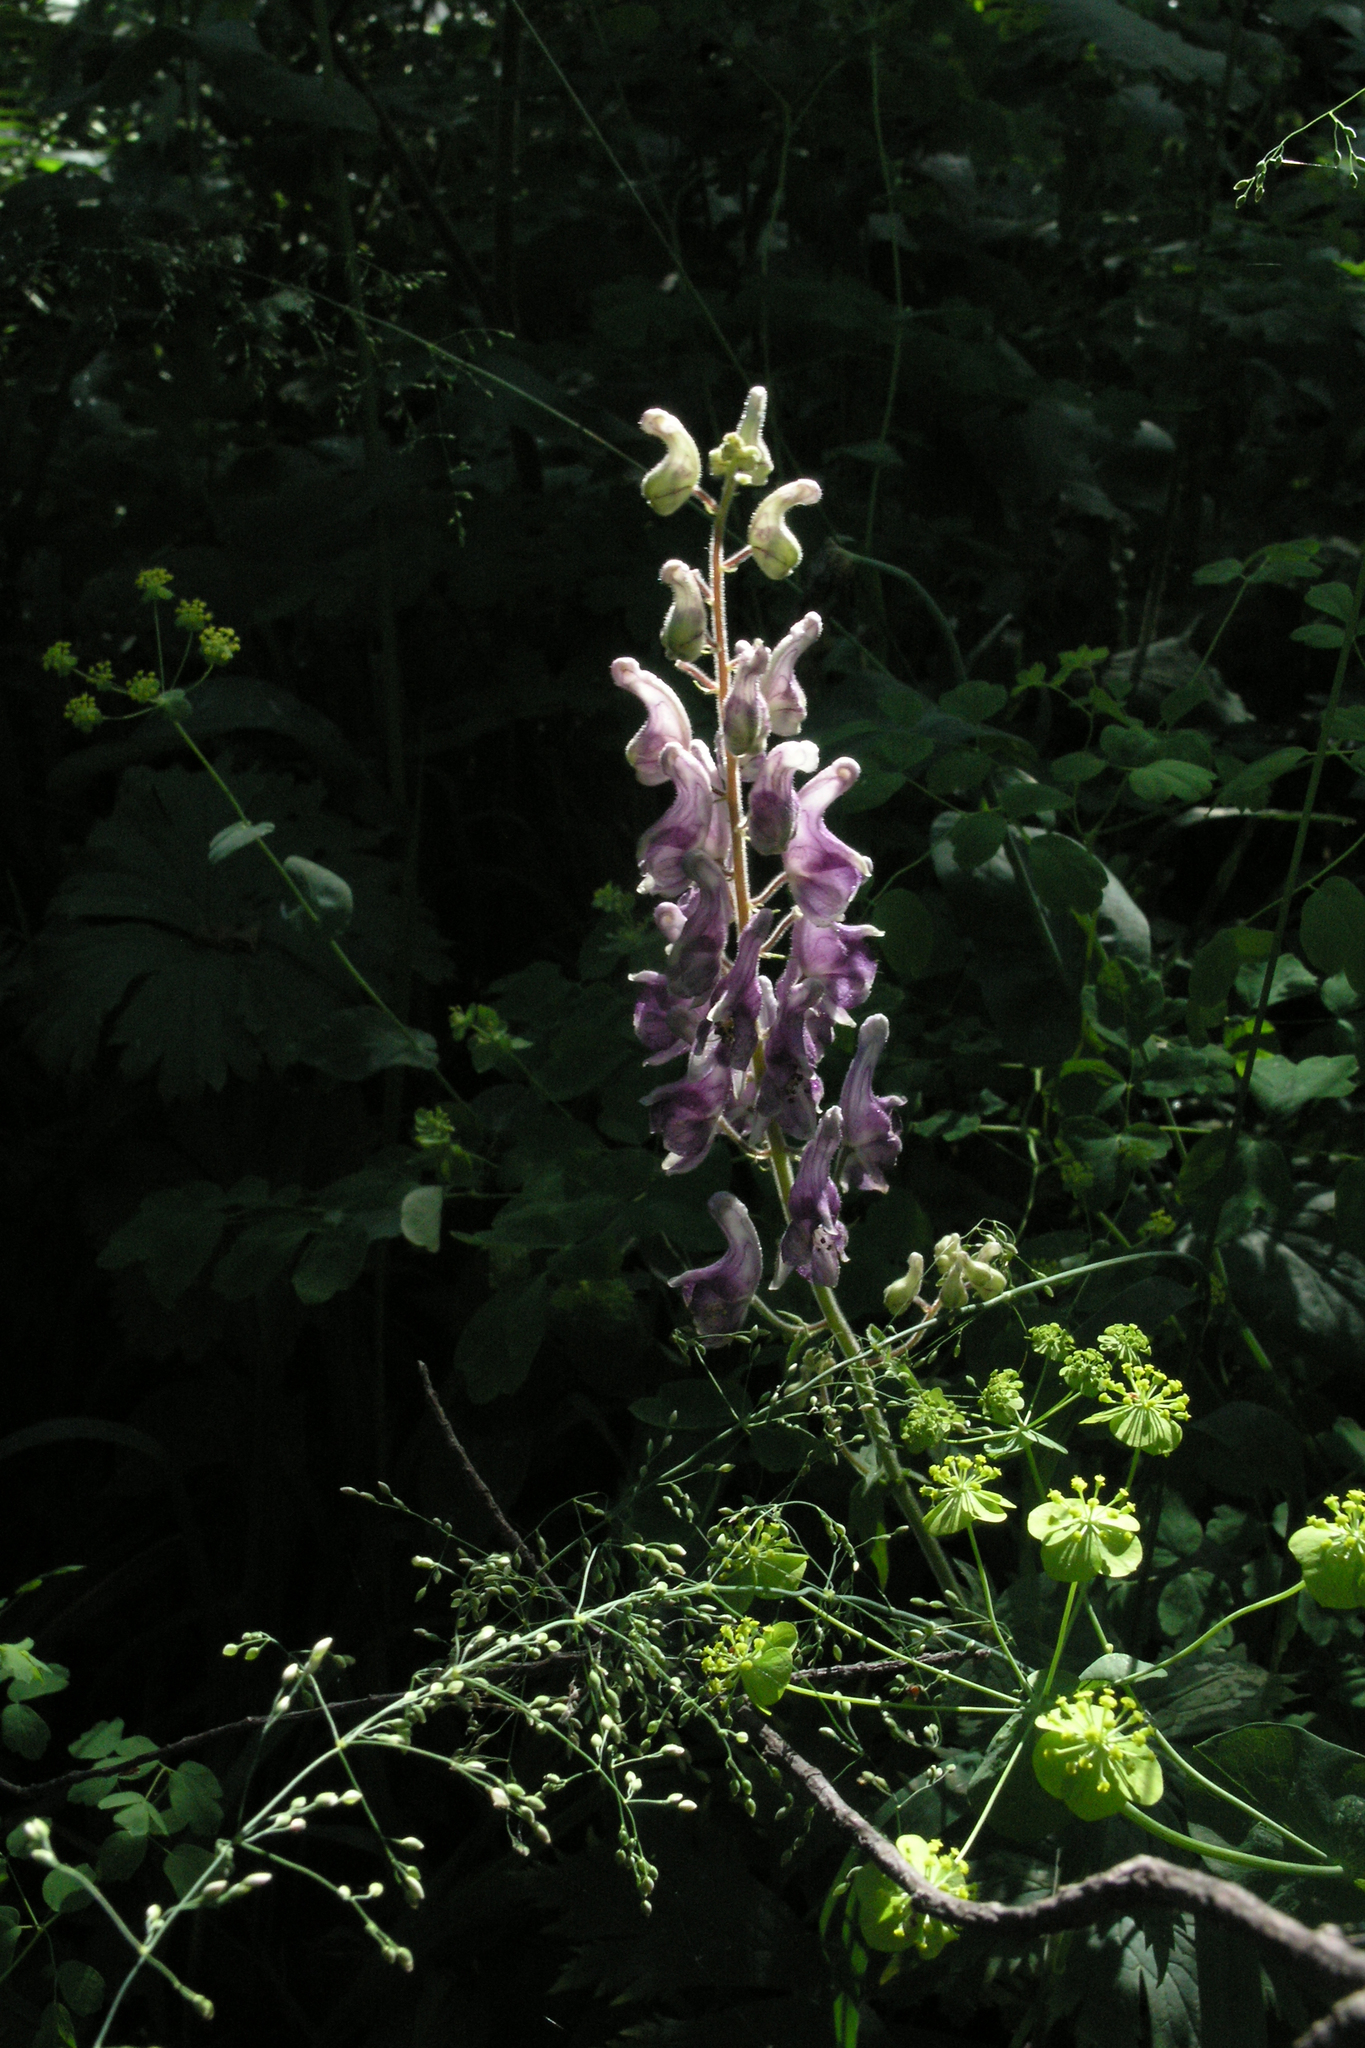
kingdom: Plantae
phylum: Tracheophyta
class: Magnoliopsida
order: Ranunculales
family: Ranunculaceae
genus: Aconitum
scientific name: Aconitum septentrionale
